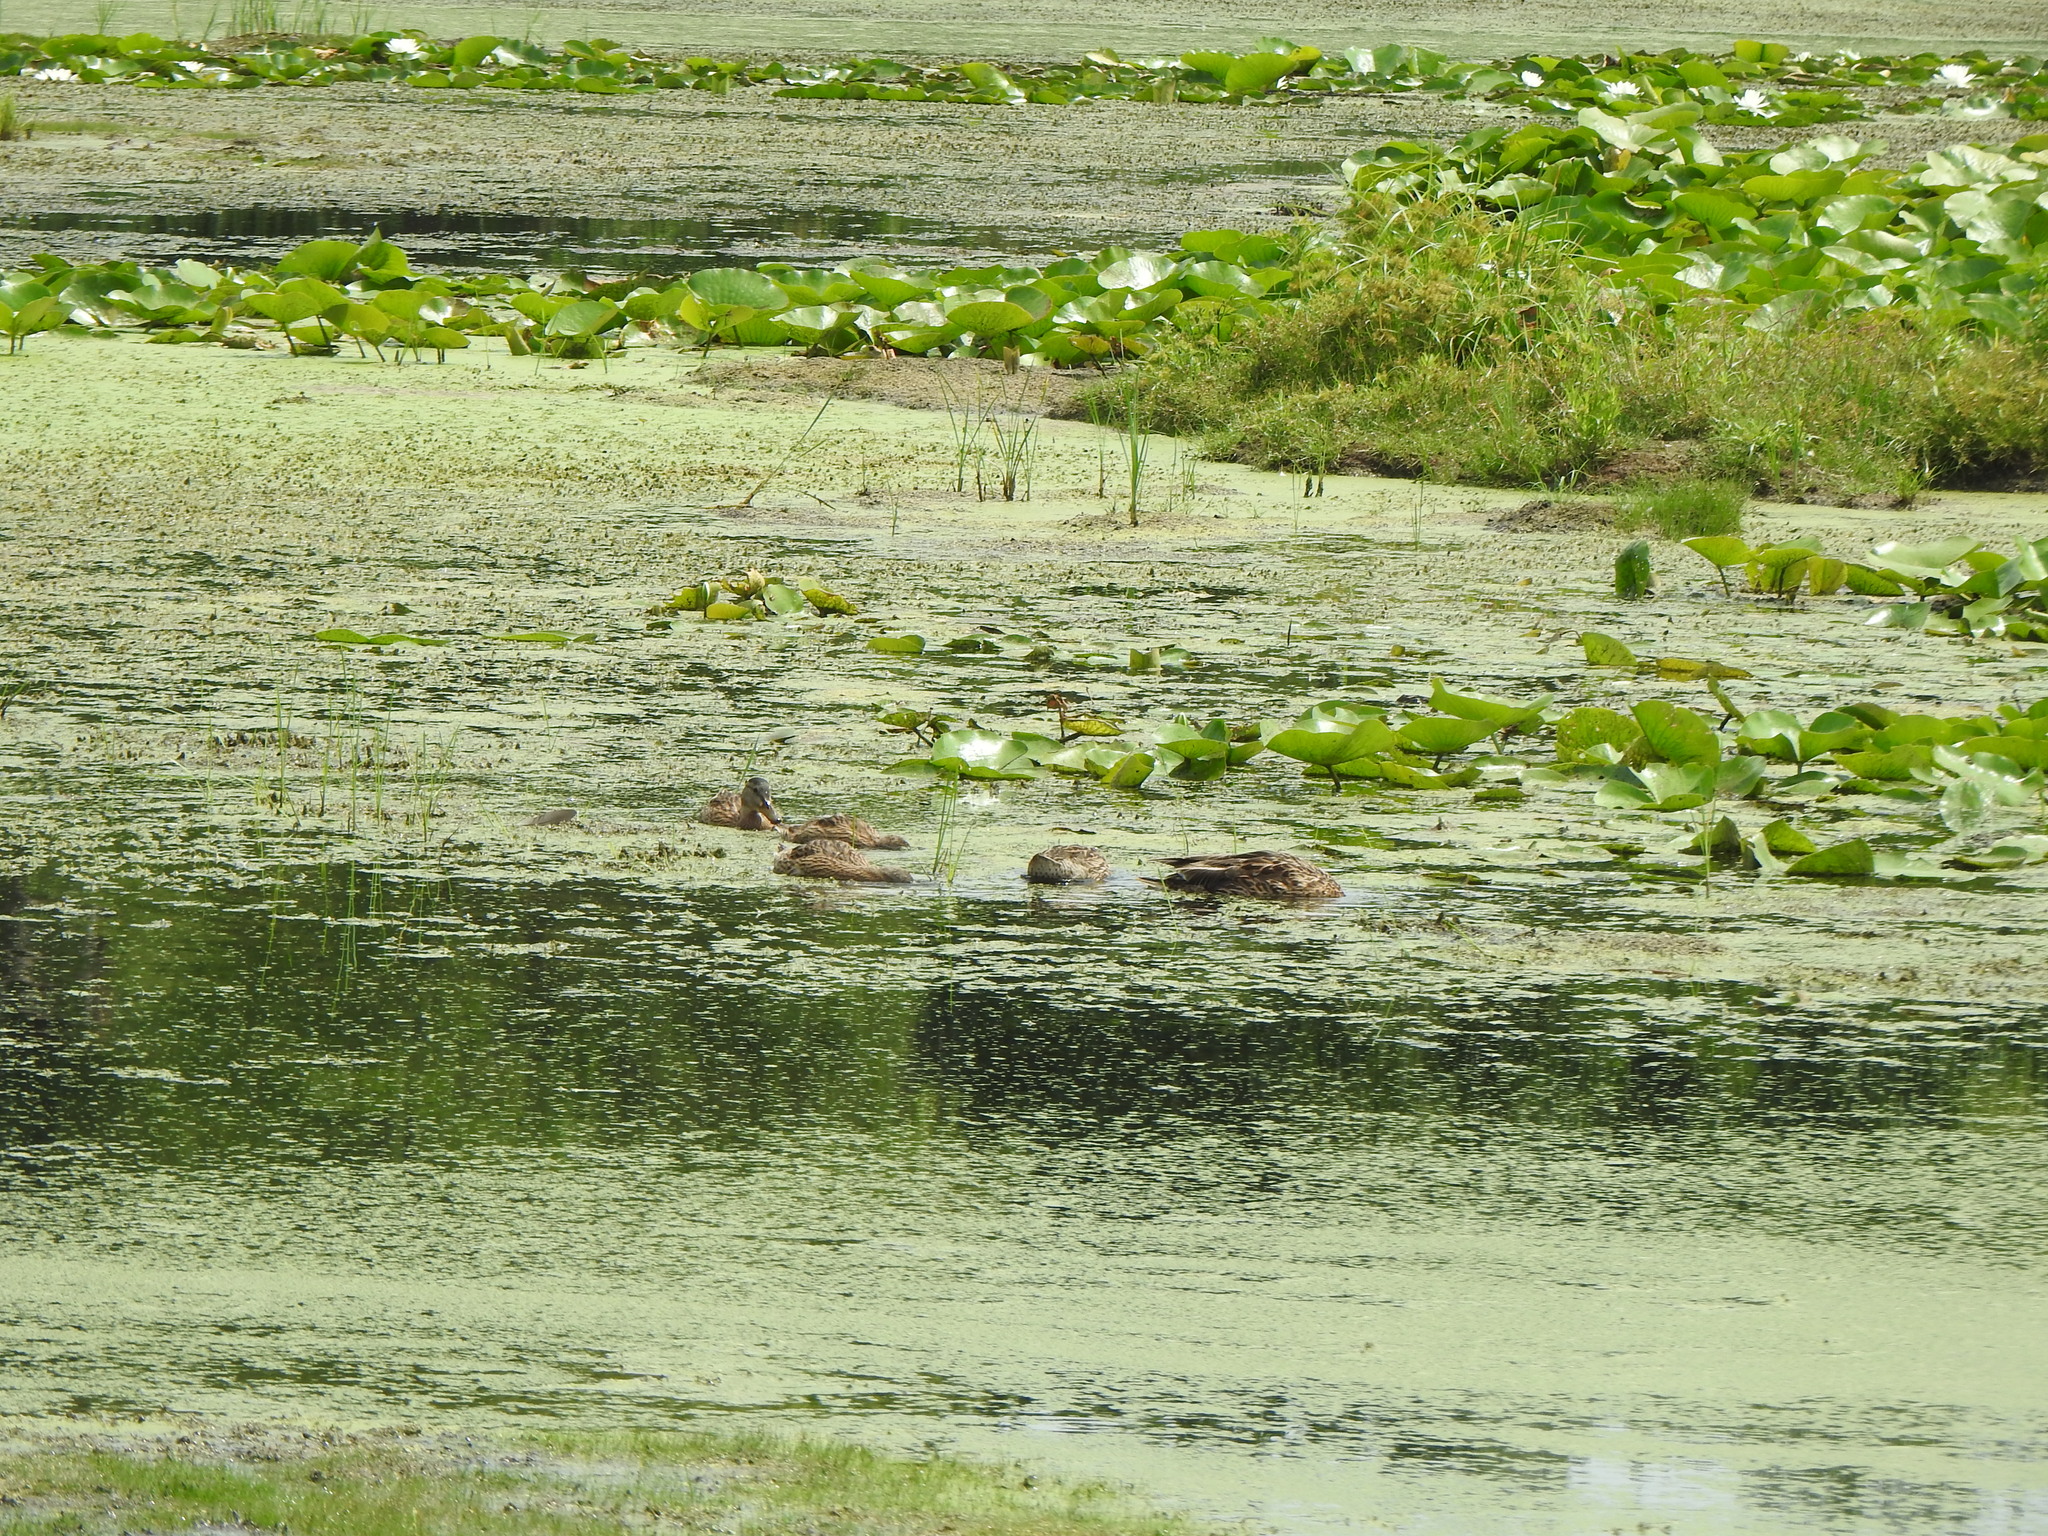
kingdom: Animalia
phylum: Chordata
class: Aves
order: Anseriformes
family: Anatidae
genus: Anas
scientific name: Anas platyrhynchos
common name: Mallard
